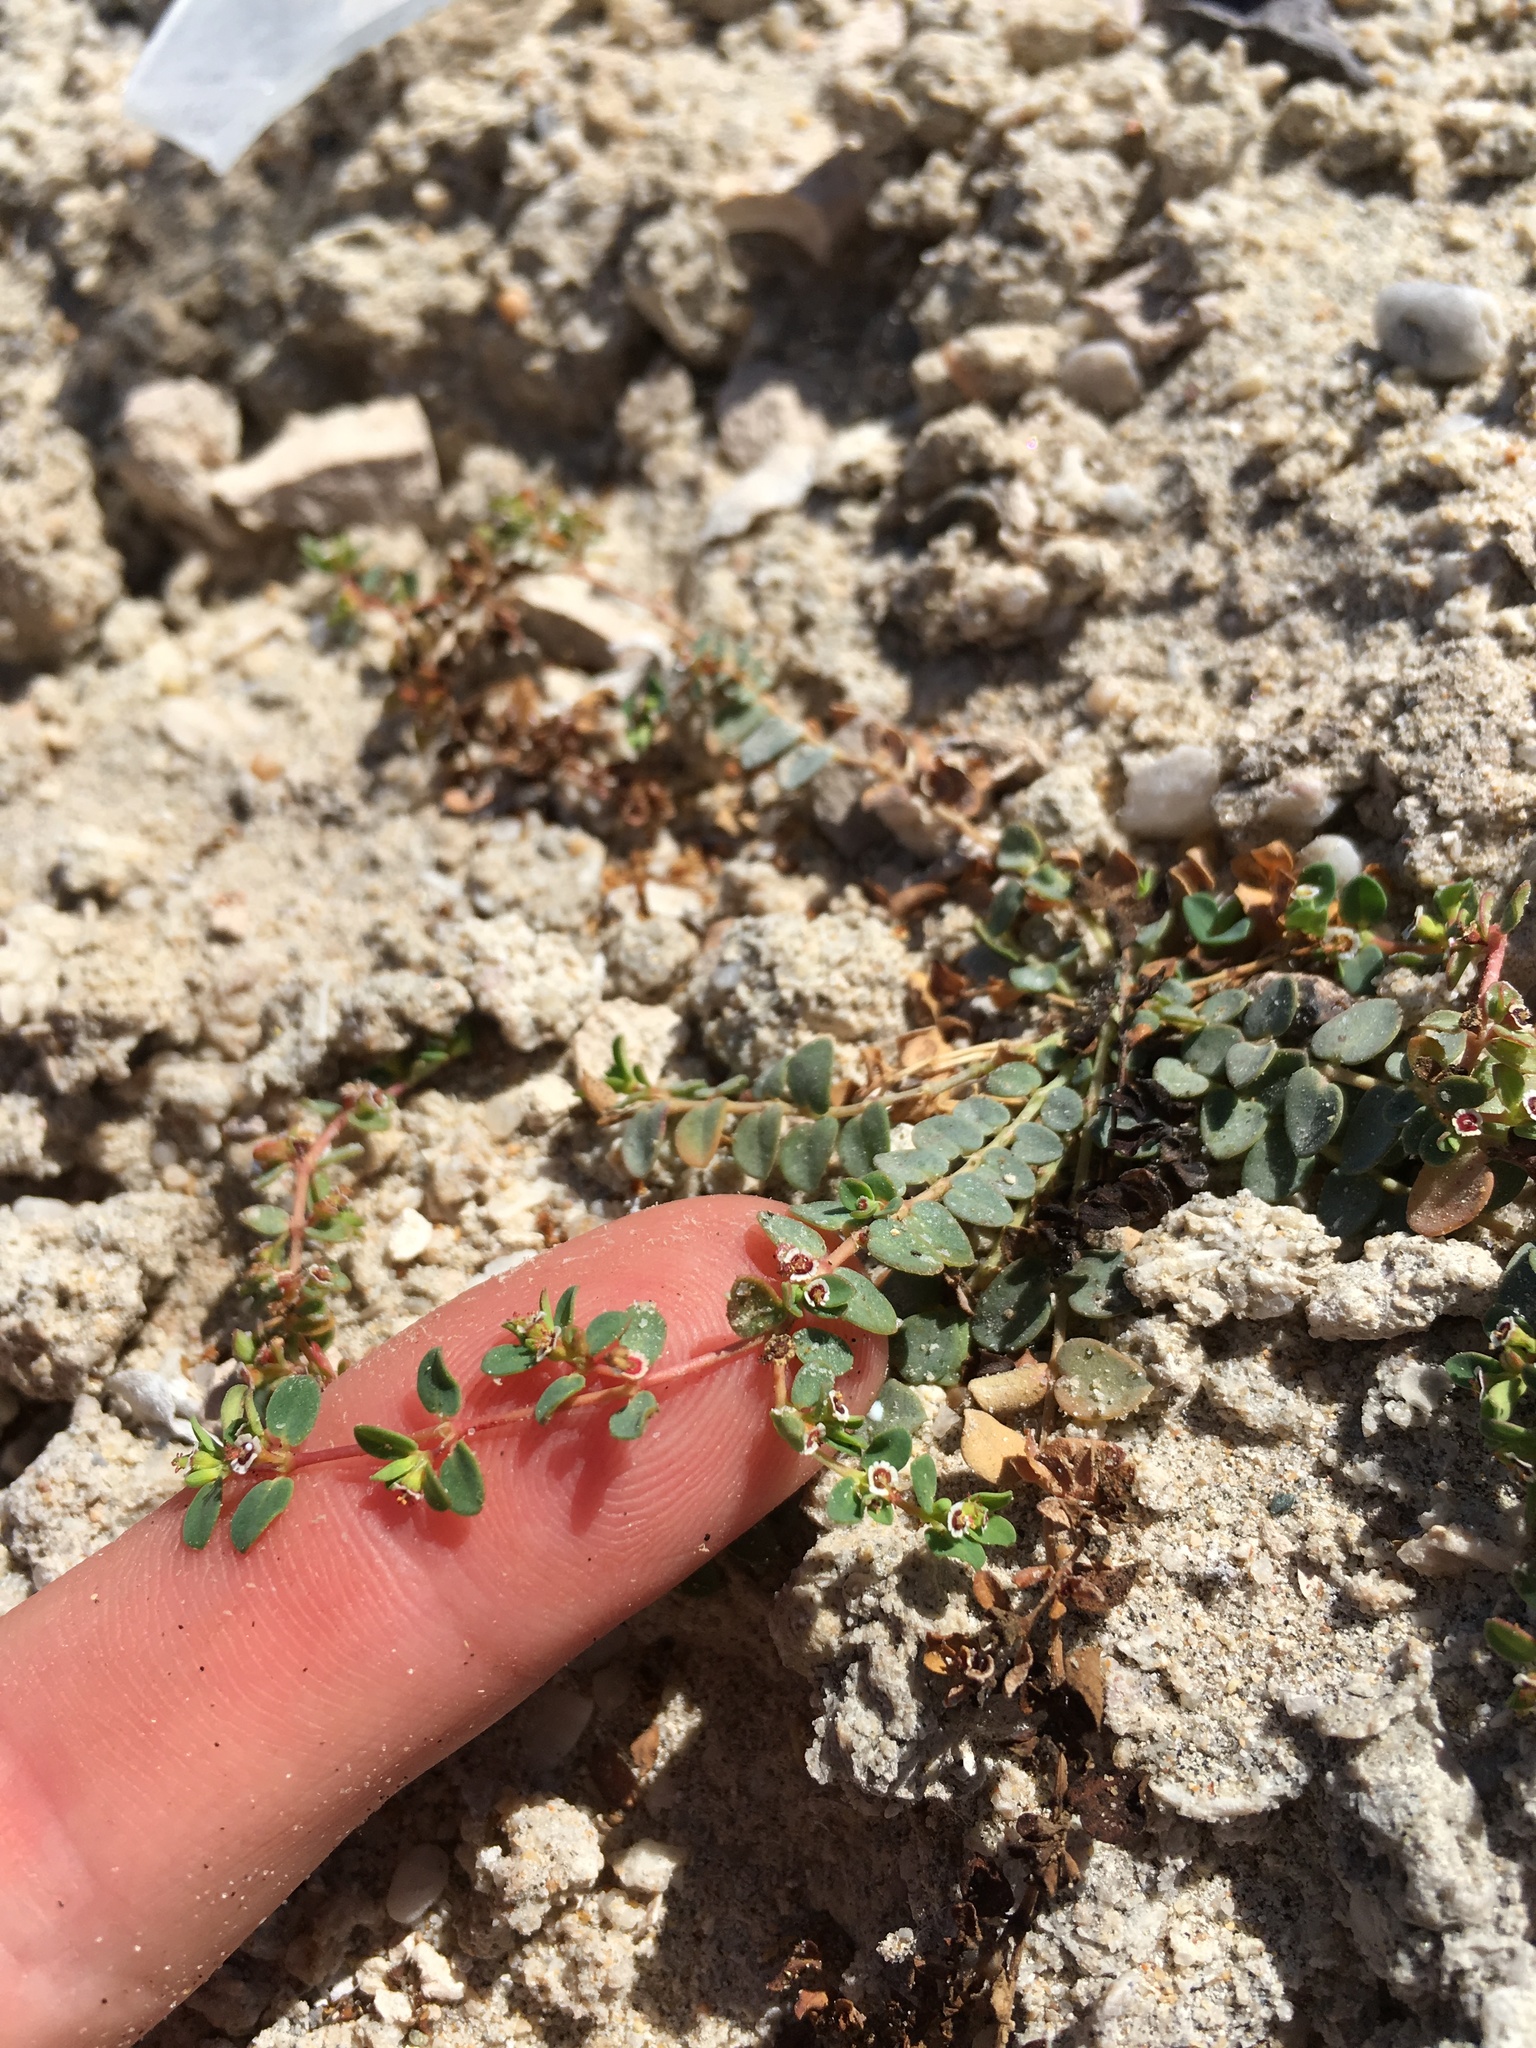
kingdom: Plantae
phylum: Tracheophyta
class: Magnoliopsida
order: Malpighiales
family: Euphorbiaceae
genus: Euphorbia
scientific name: Euphorbia polycarpa
